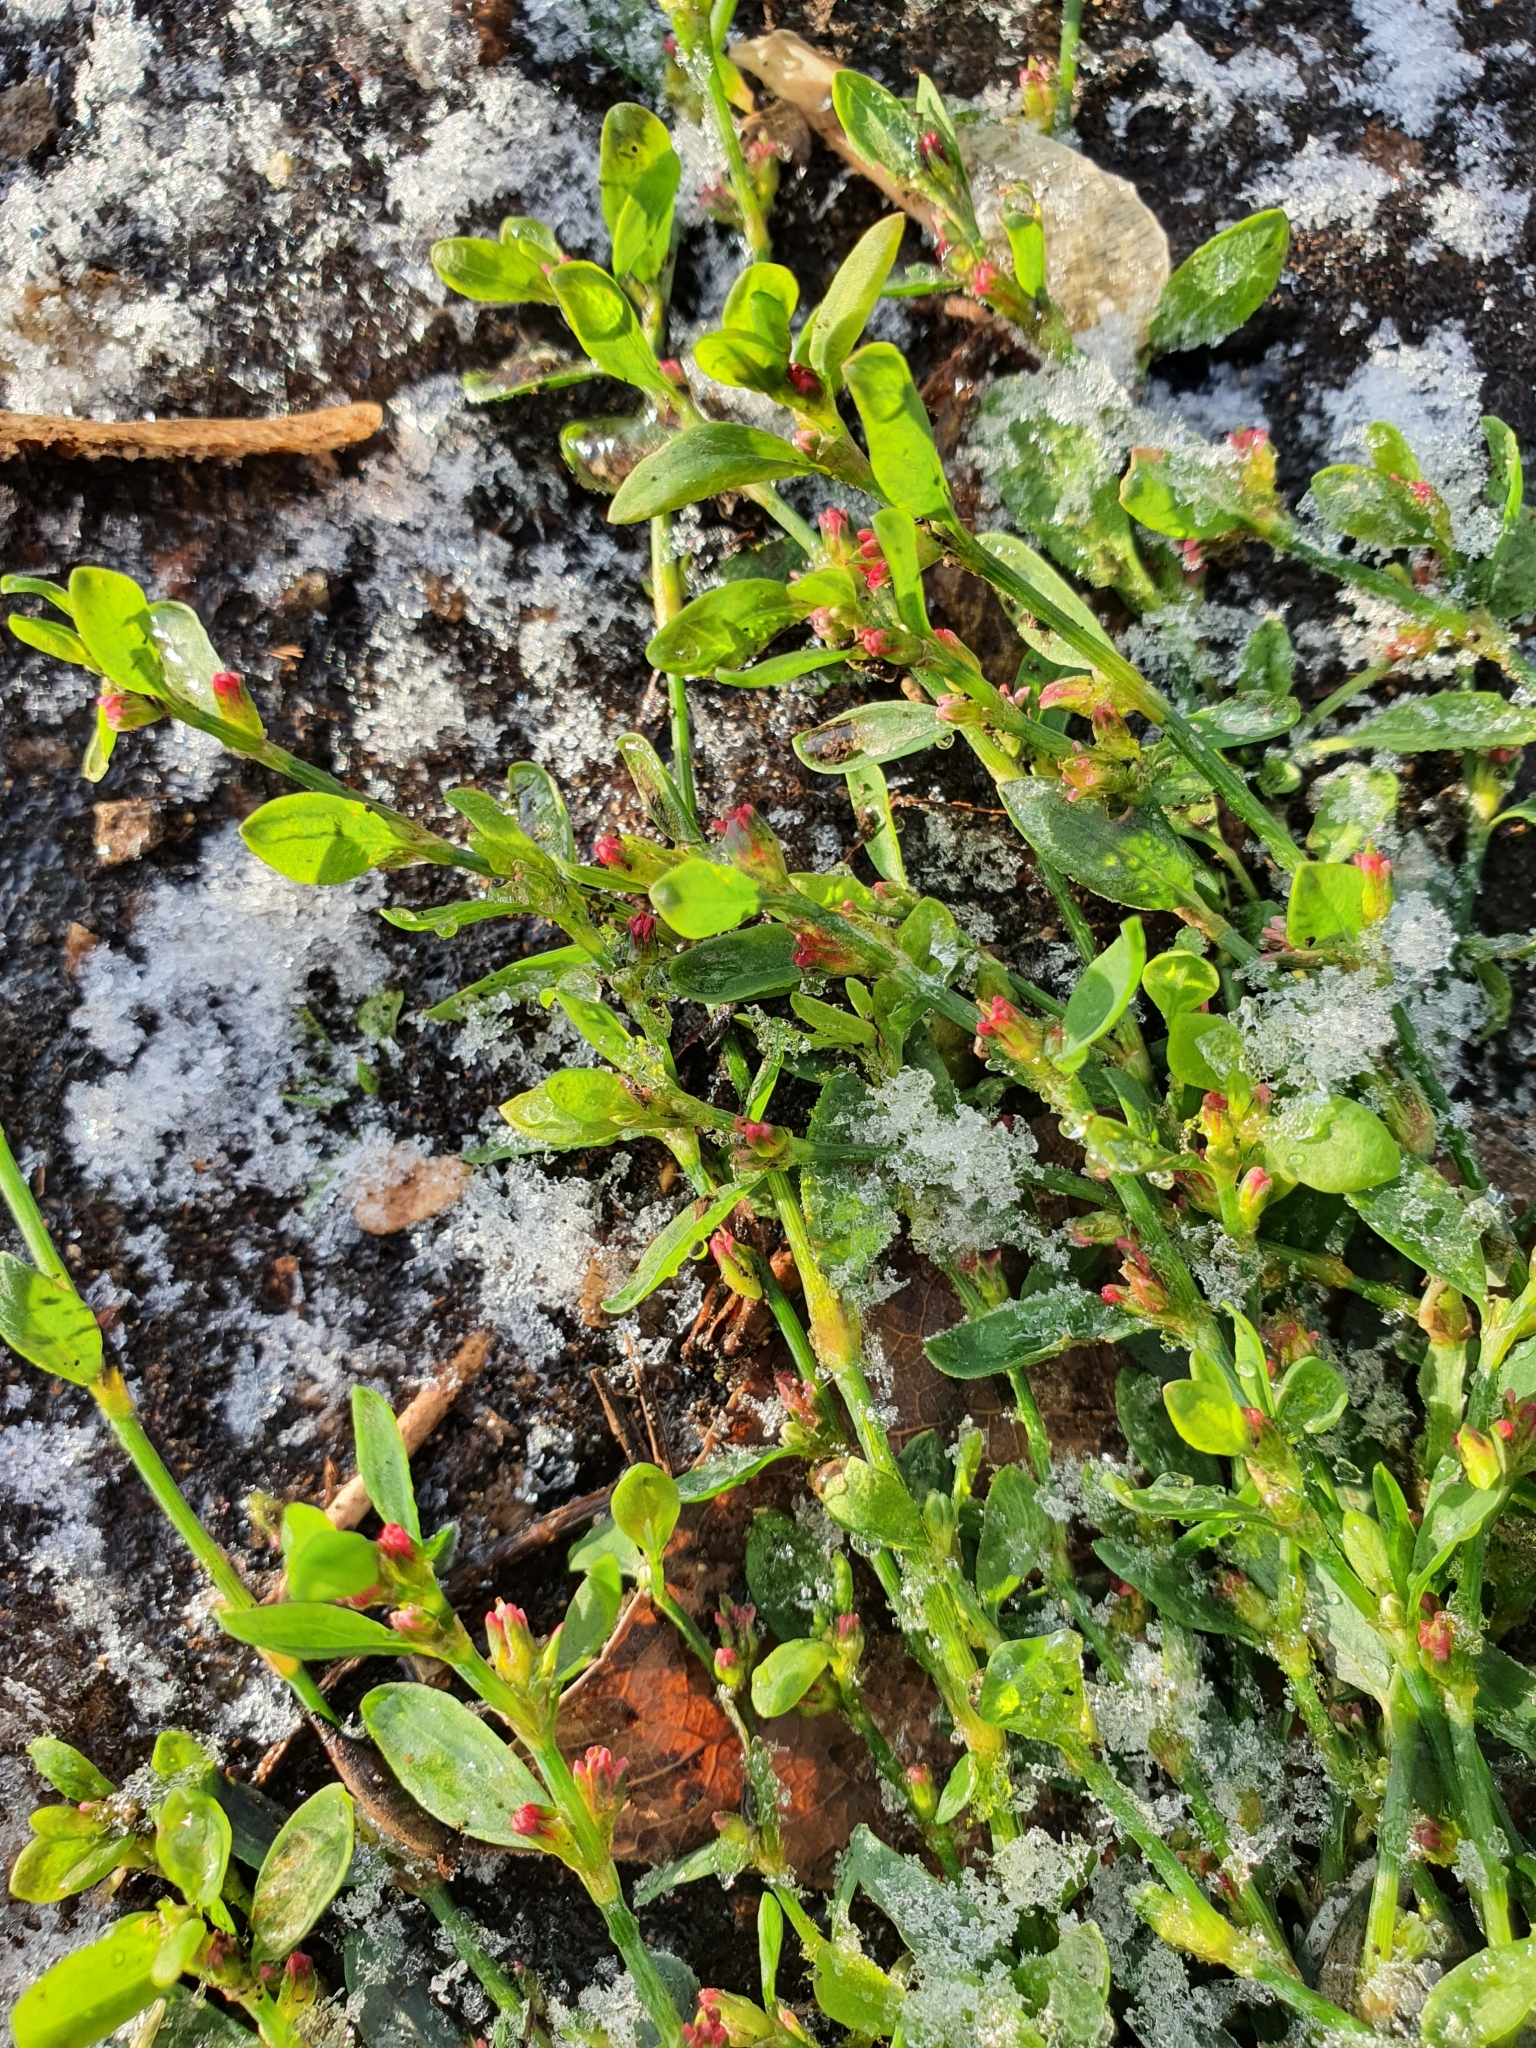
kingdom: Plantae
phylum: Tracheophyta
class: Magnoliopsida
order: Caryophyllales
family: Polygonaceae
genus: Polygonum
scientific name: Polygonum
